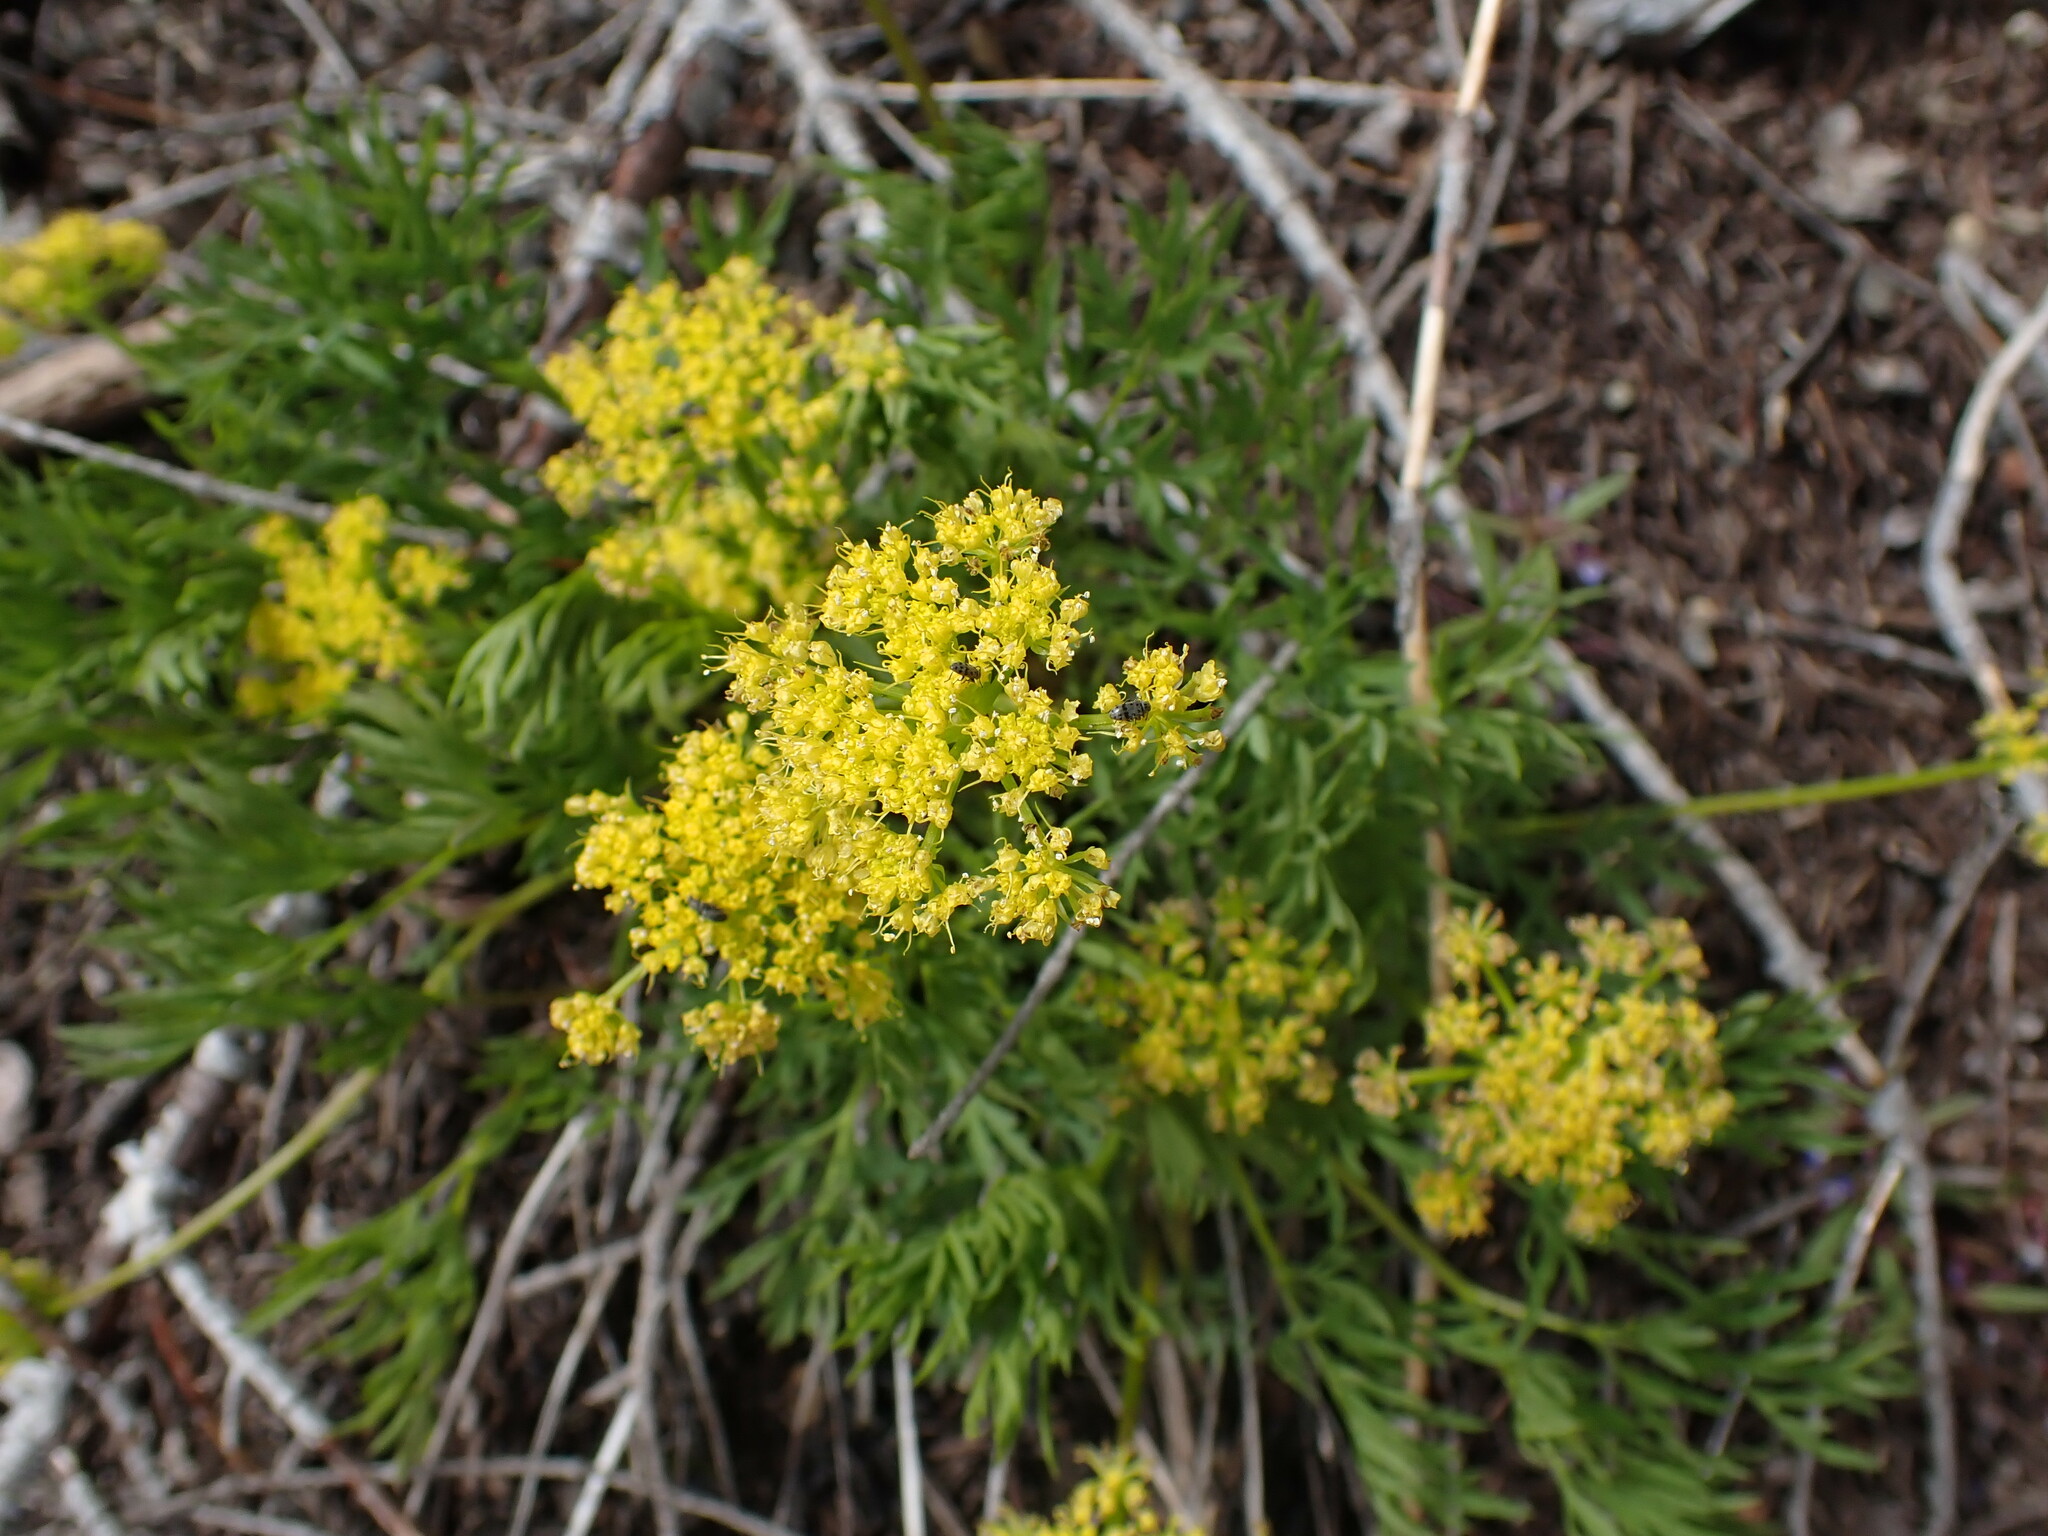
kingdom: Plantae
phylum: Tracheophyta
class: Magnoliopsida
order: Apiales
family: Apiaceae
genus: Lomatium
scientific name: Lomatium brandegeei
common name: Brandegee's desert-parsley
